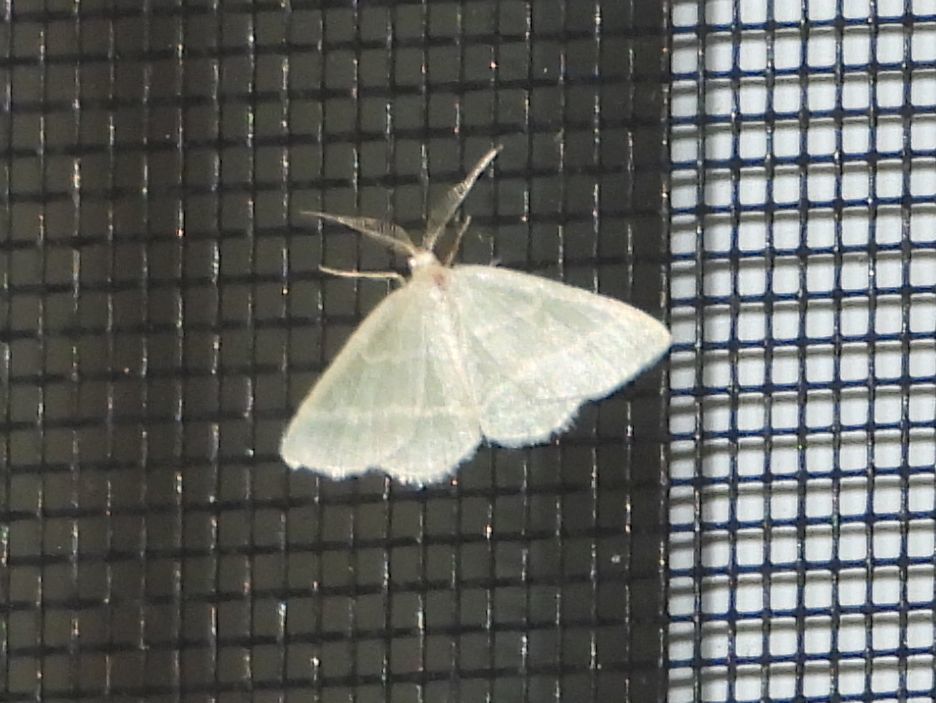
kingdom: Animalia
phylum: Arthropoda
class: Insecta
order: Lepidoptera
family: Geometridae
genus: Chlorochlamys
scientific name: Chlorochlamys chloroleucaria
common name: Blackberry looper
